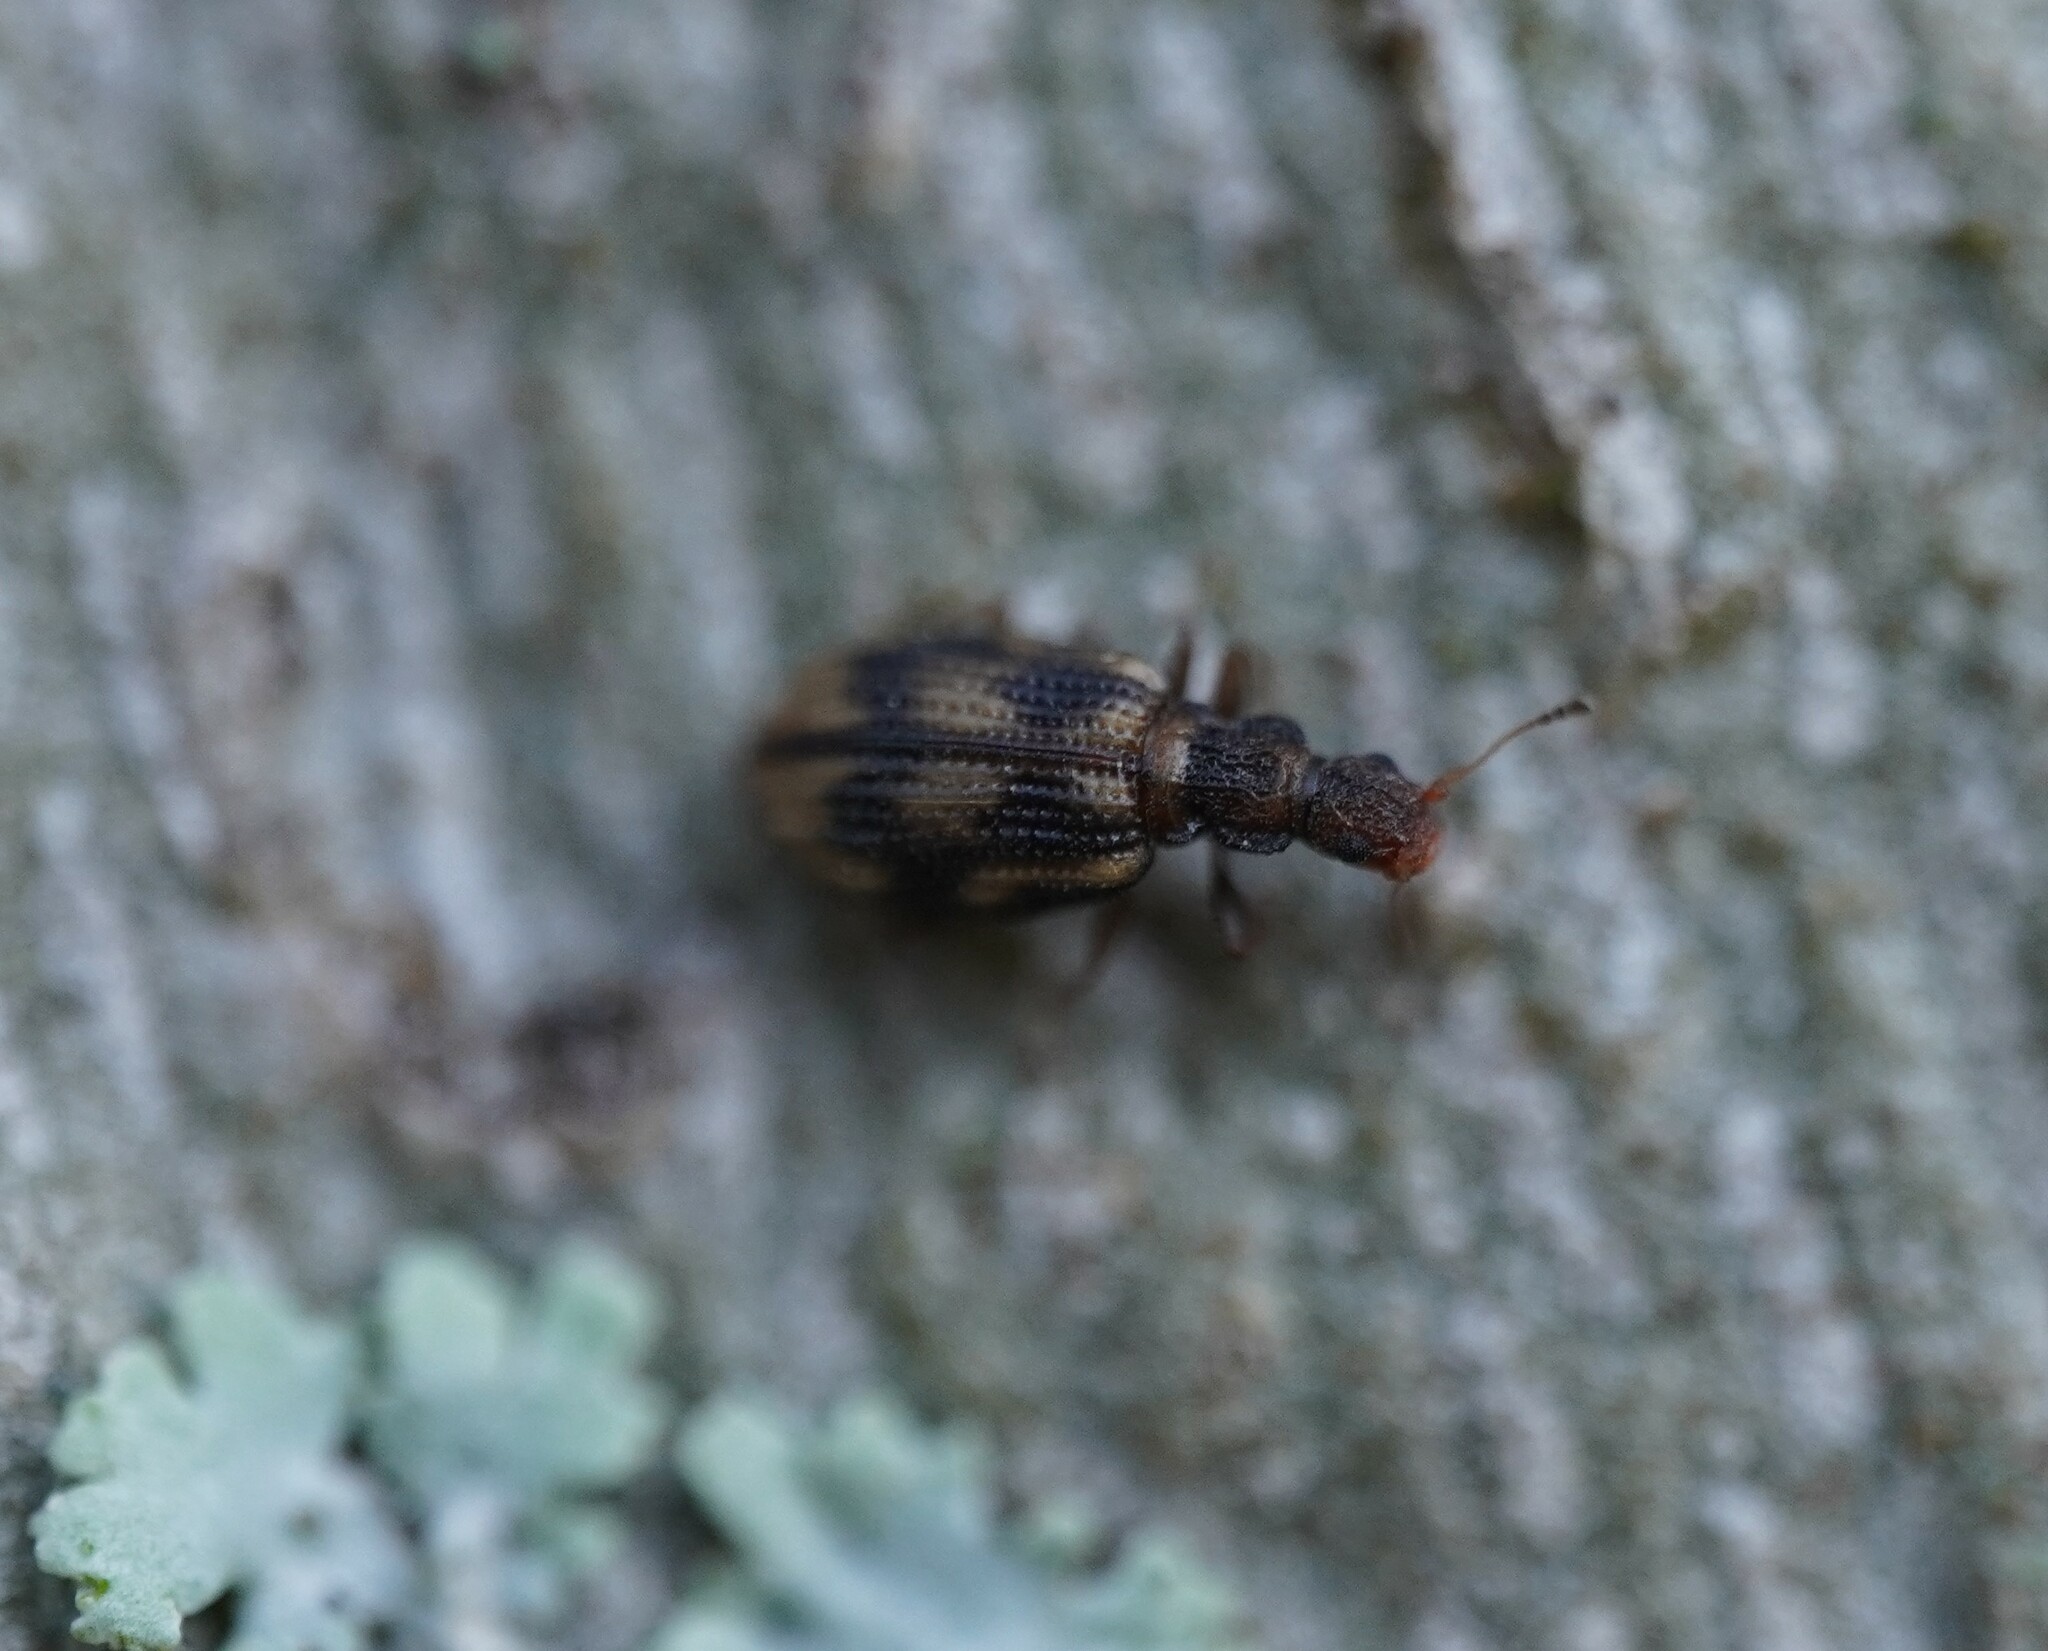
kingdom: Animalia
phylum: Arthropoda
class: Insecta
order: Coleoptera
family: Latridiidae
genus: Cartodere
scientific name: Cartodere bifasciata
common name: Plaster beetle
